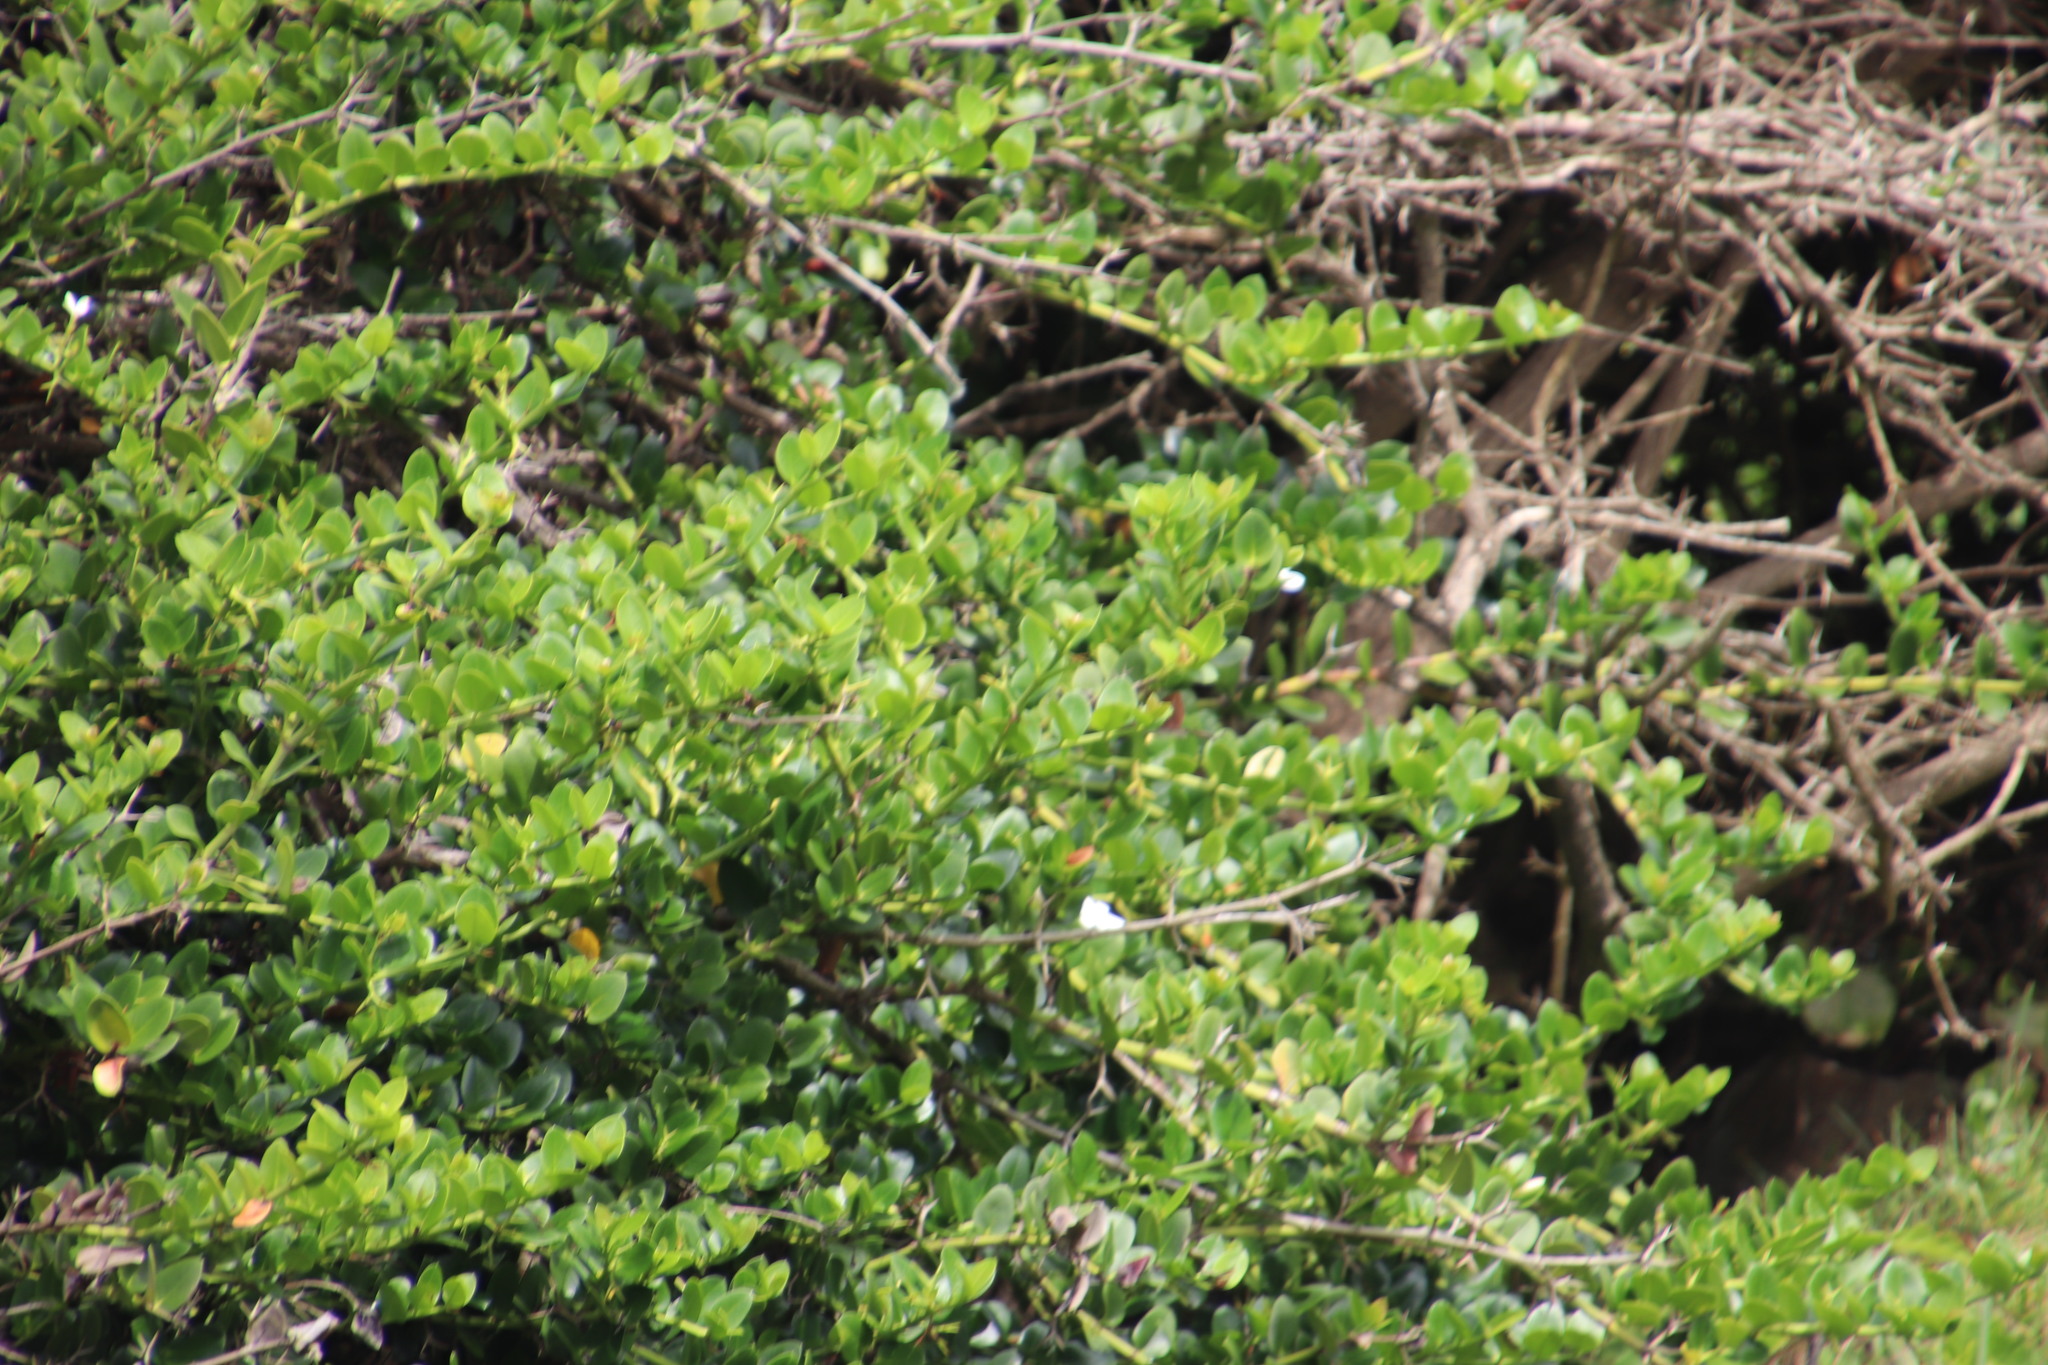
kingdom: Plantae
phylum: Tracheophyta
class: Magnoliopsida
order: Gentianales
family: Apocynaceae
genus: Carissa
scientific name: Carissa macrocarpa
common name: Natal plum
